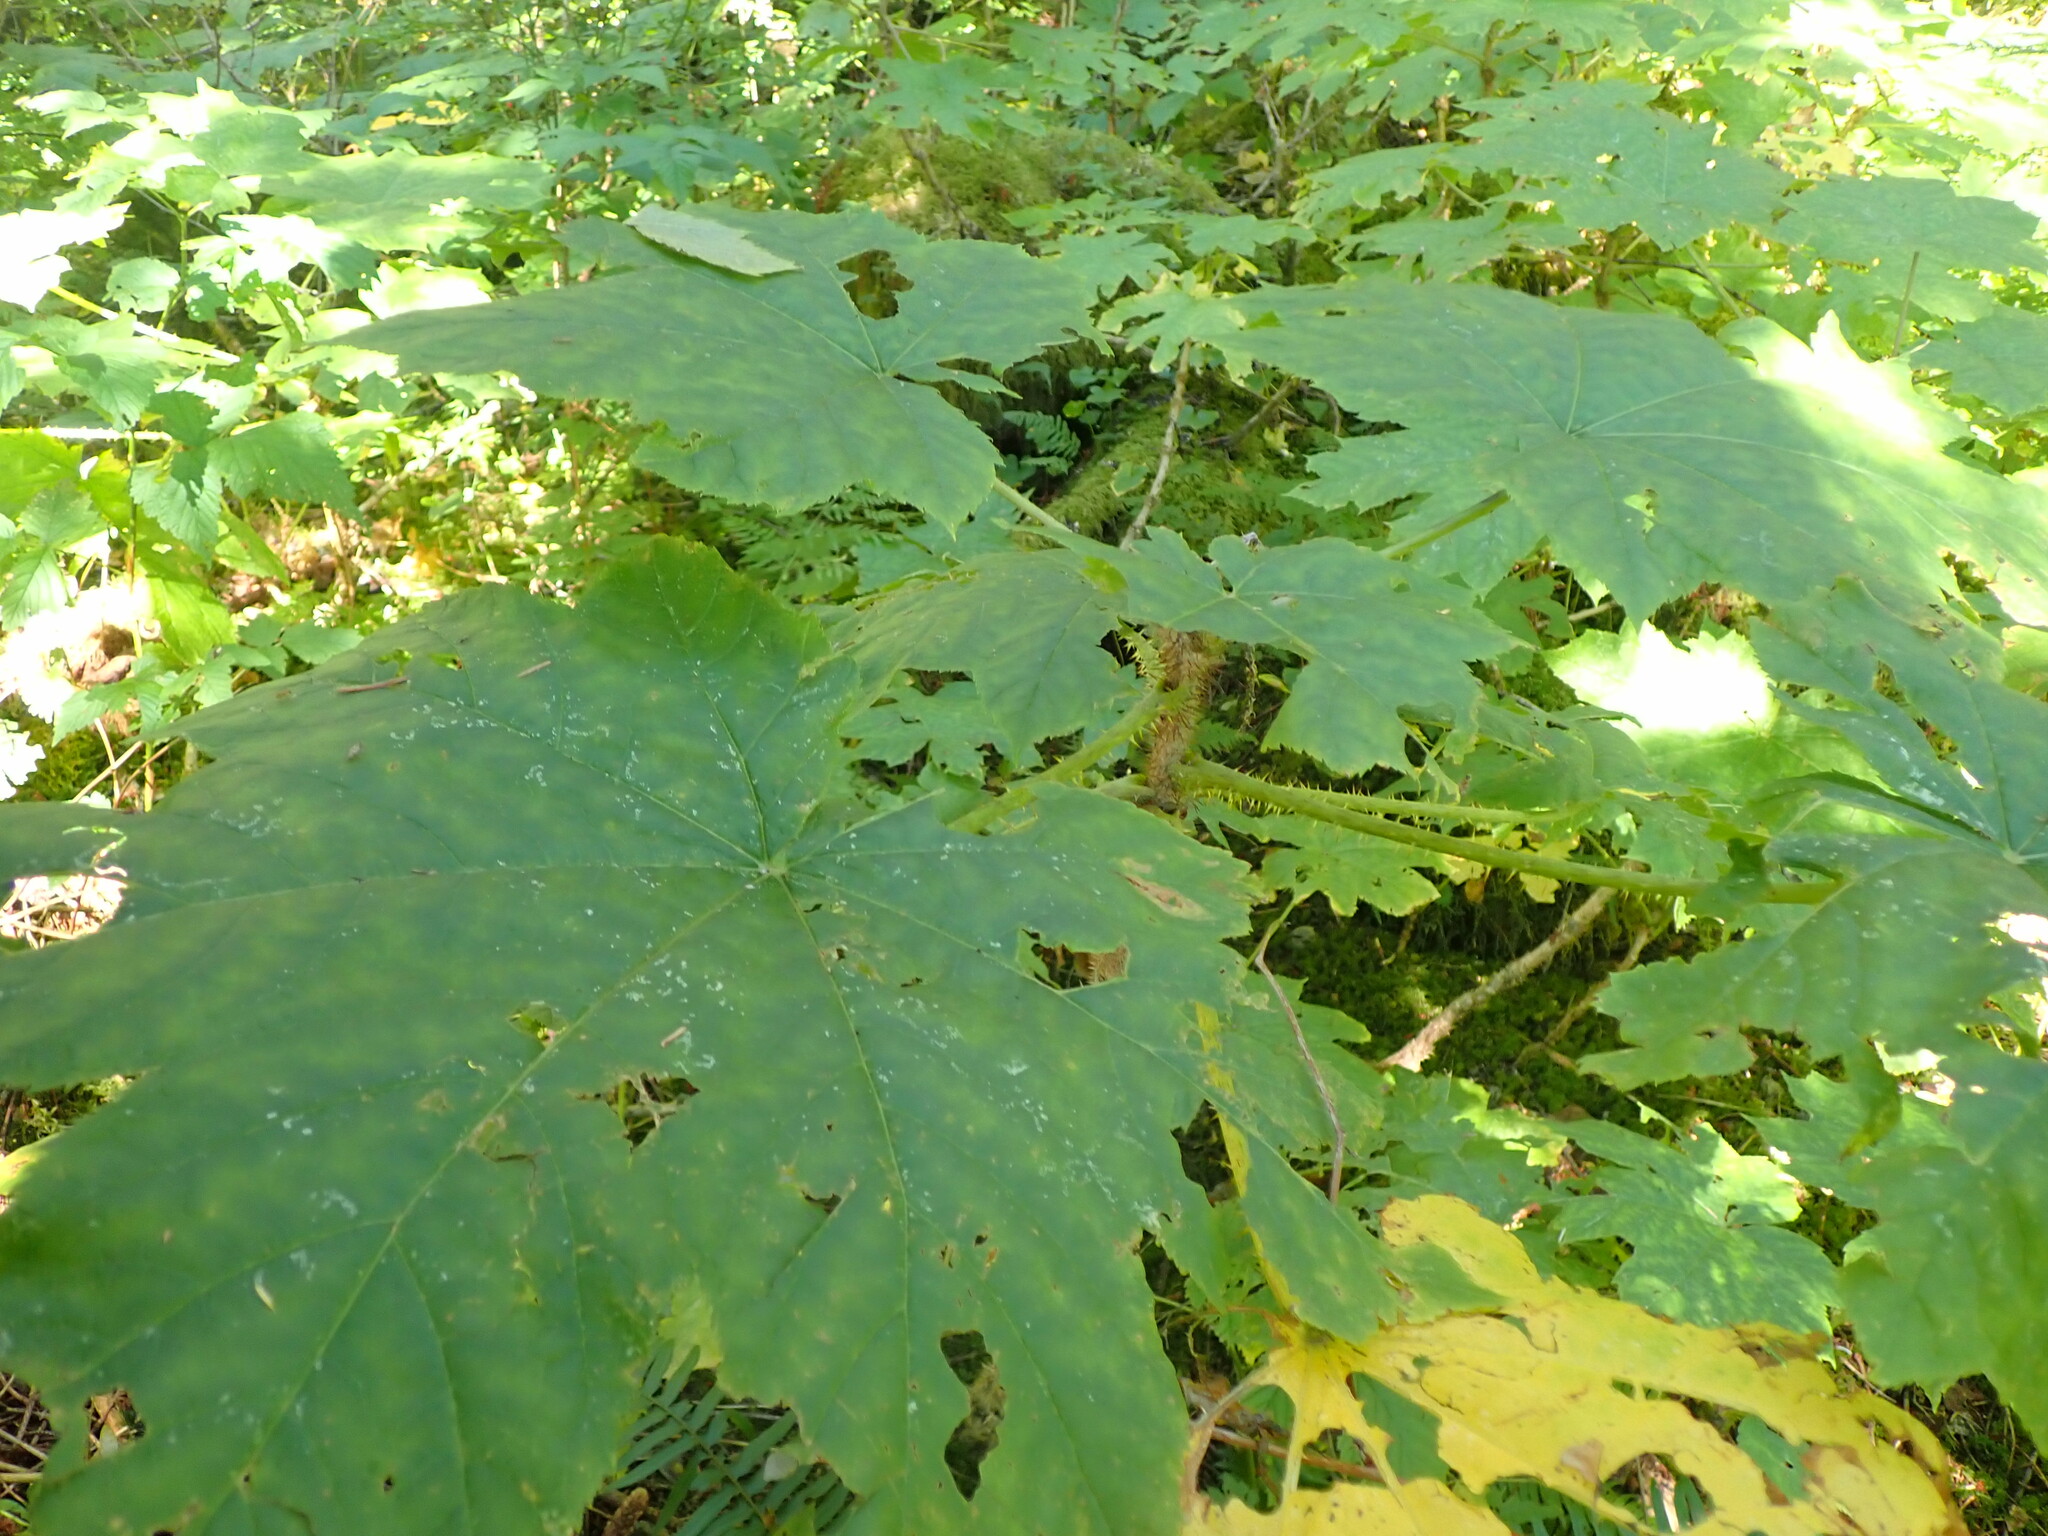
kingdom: Plantae
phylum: Tracheophyta
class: Magnoliopsida
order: Apiales
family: Araliaceae
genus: Oplopanax
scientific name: Oplopanax horridus
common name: Devil's walking-stick
